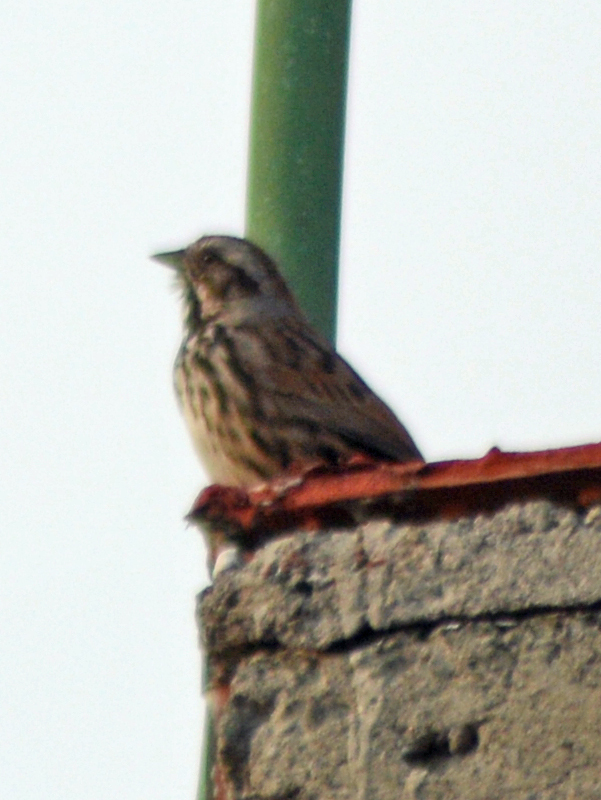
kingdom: Animalia
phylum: Chordata
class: Aves
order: Passeriformes
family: Passerellidae
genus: Melospiza
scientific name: Melospiza melodia
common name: Song sparrow
